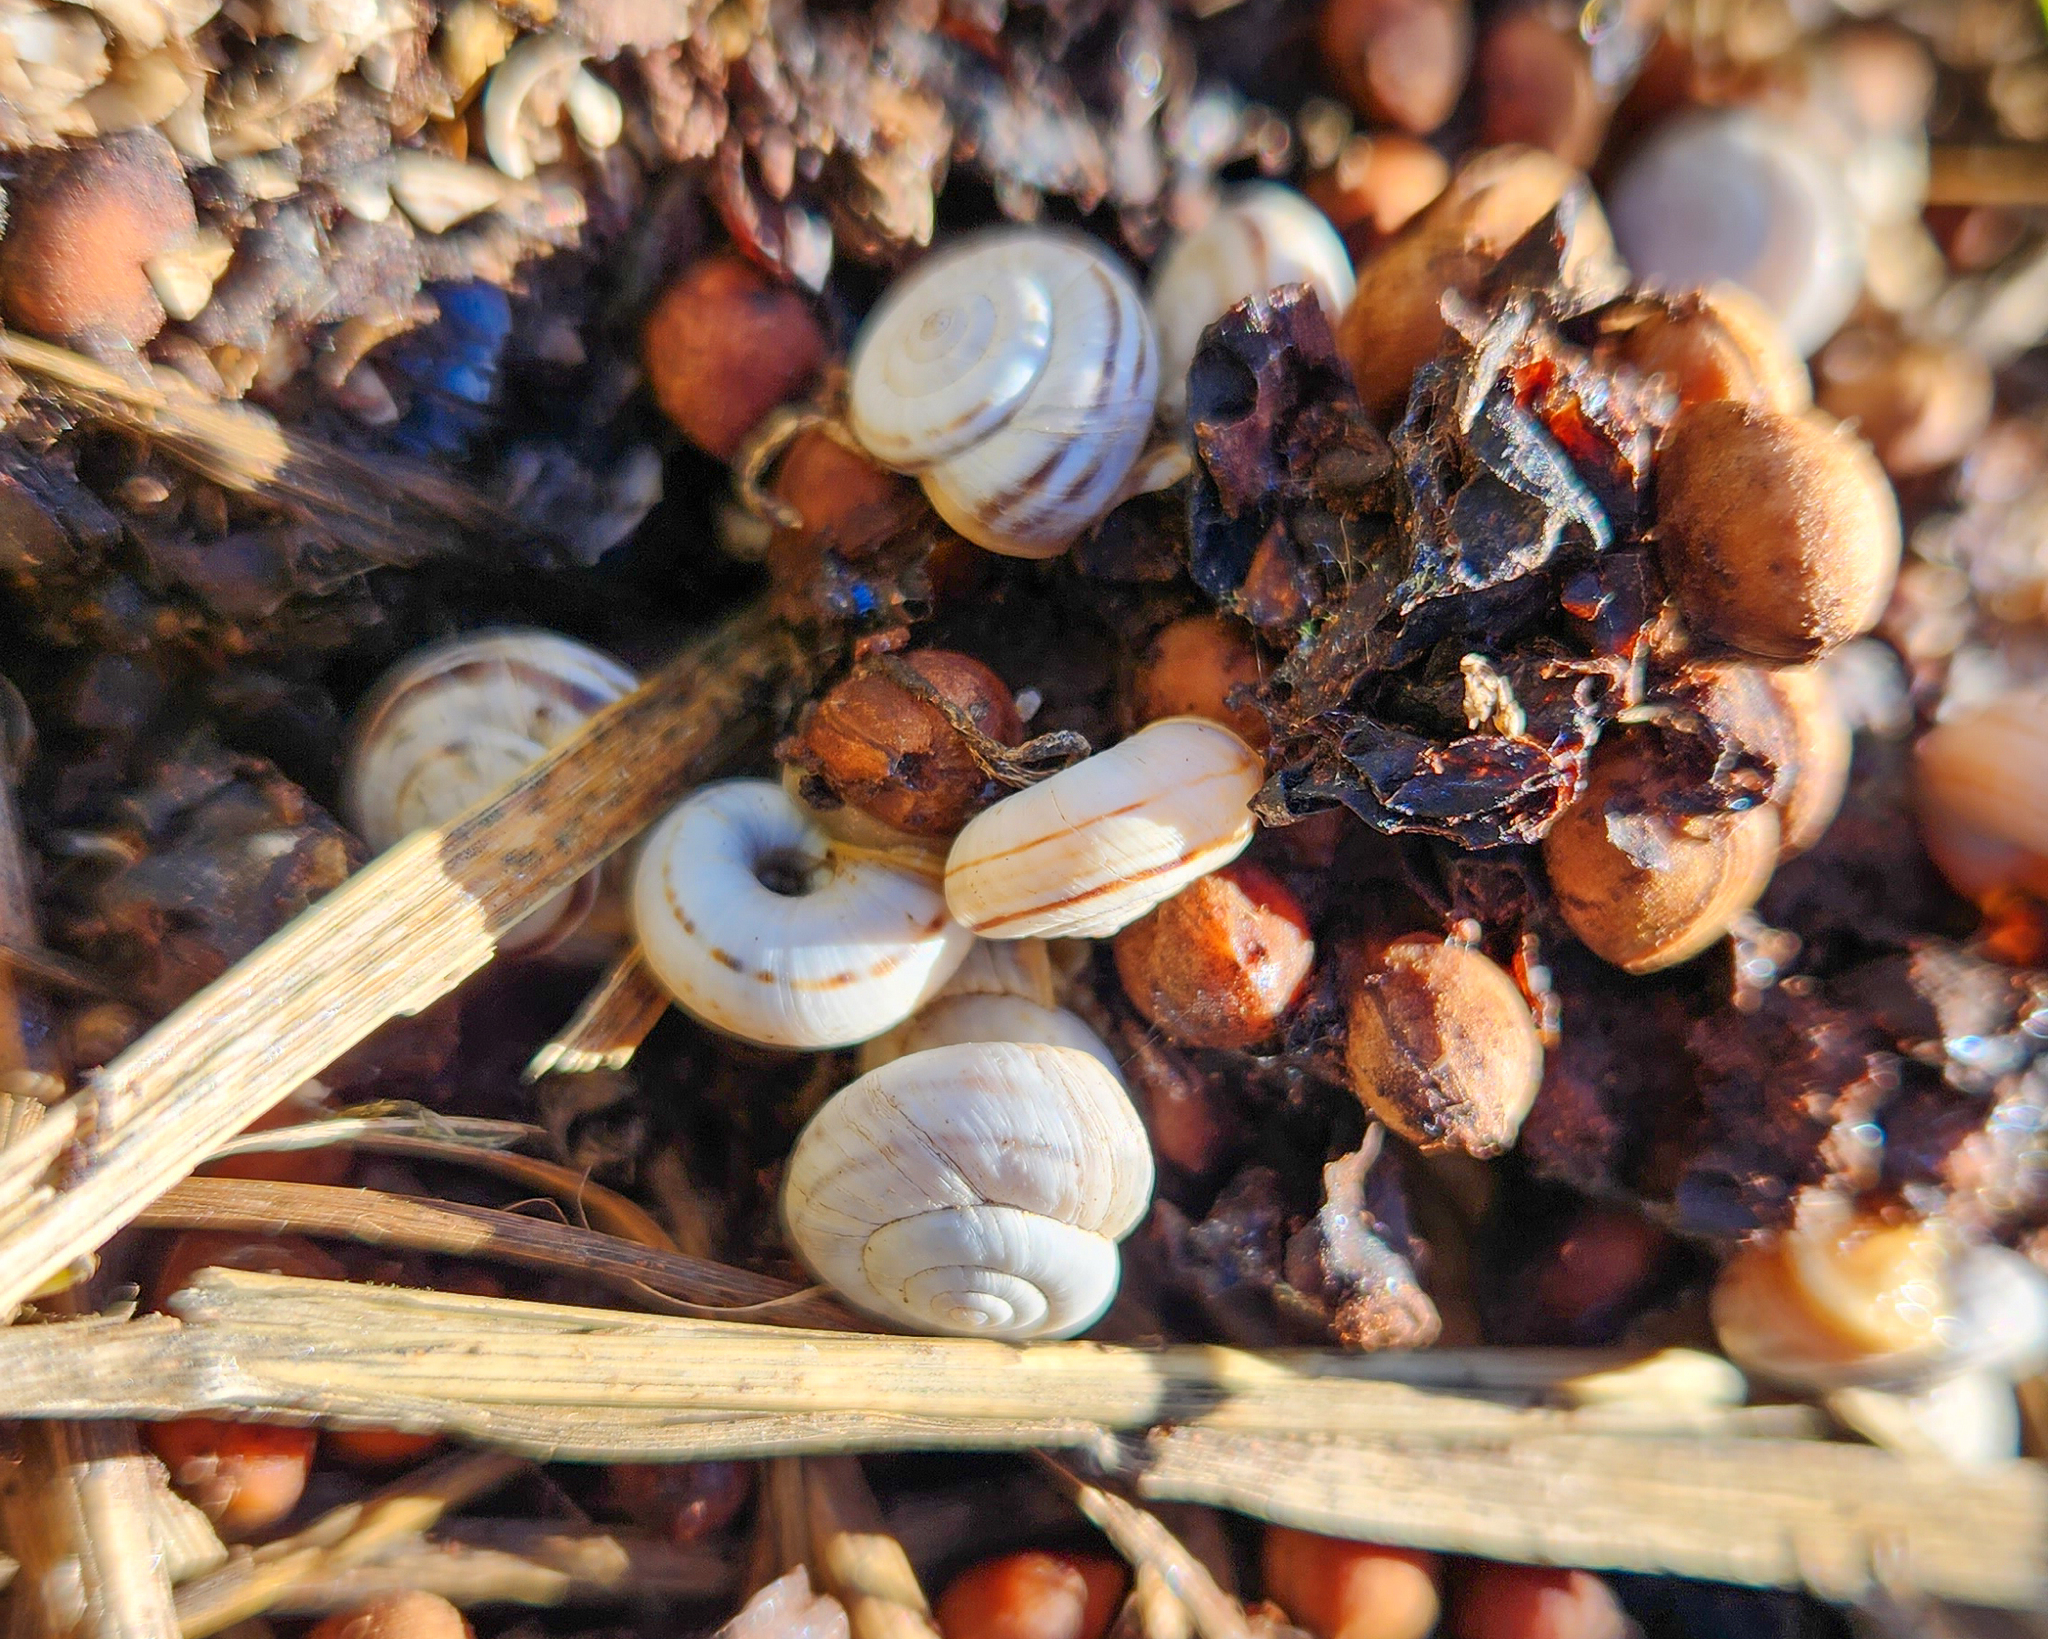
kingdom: Animalia
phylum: Mollusca
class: Gastropoda
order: Stylommatophora
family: Geomitridae
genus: Xerolenta
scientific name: Xerolenta obvia
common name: White heath snail
